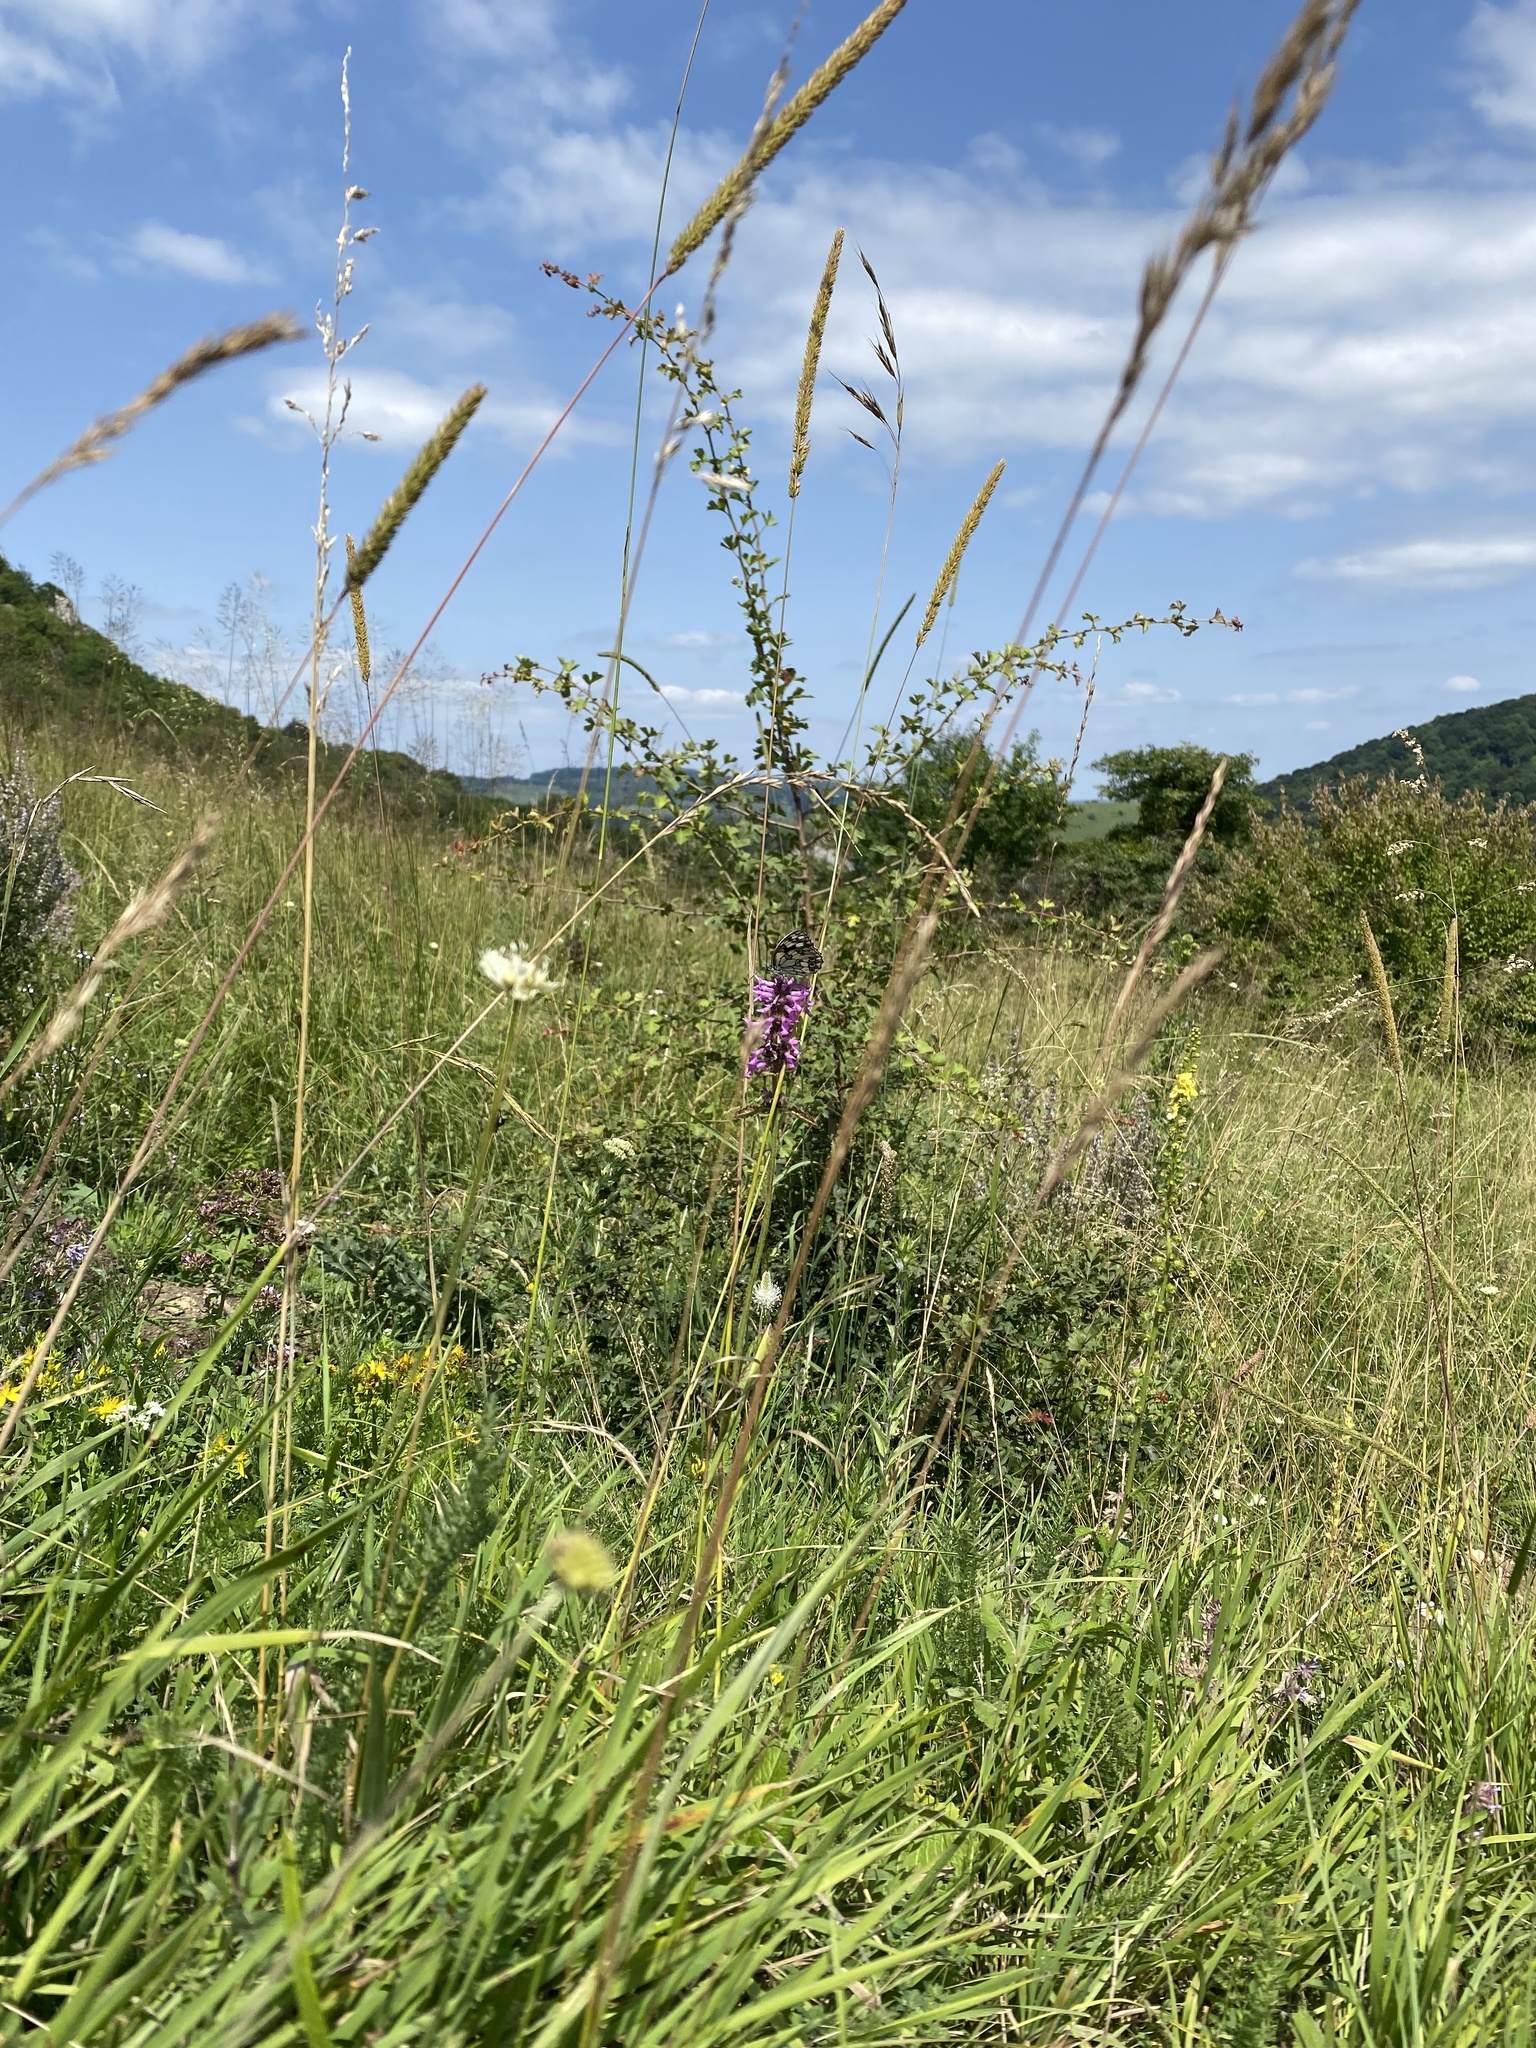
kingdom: Animalia
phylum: Arthropoda
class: Insecta
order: Lepidoptera
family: Nymphalidae
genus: Melanargia
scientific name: Melanargia galathea
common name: Marbled white
